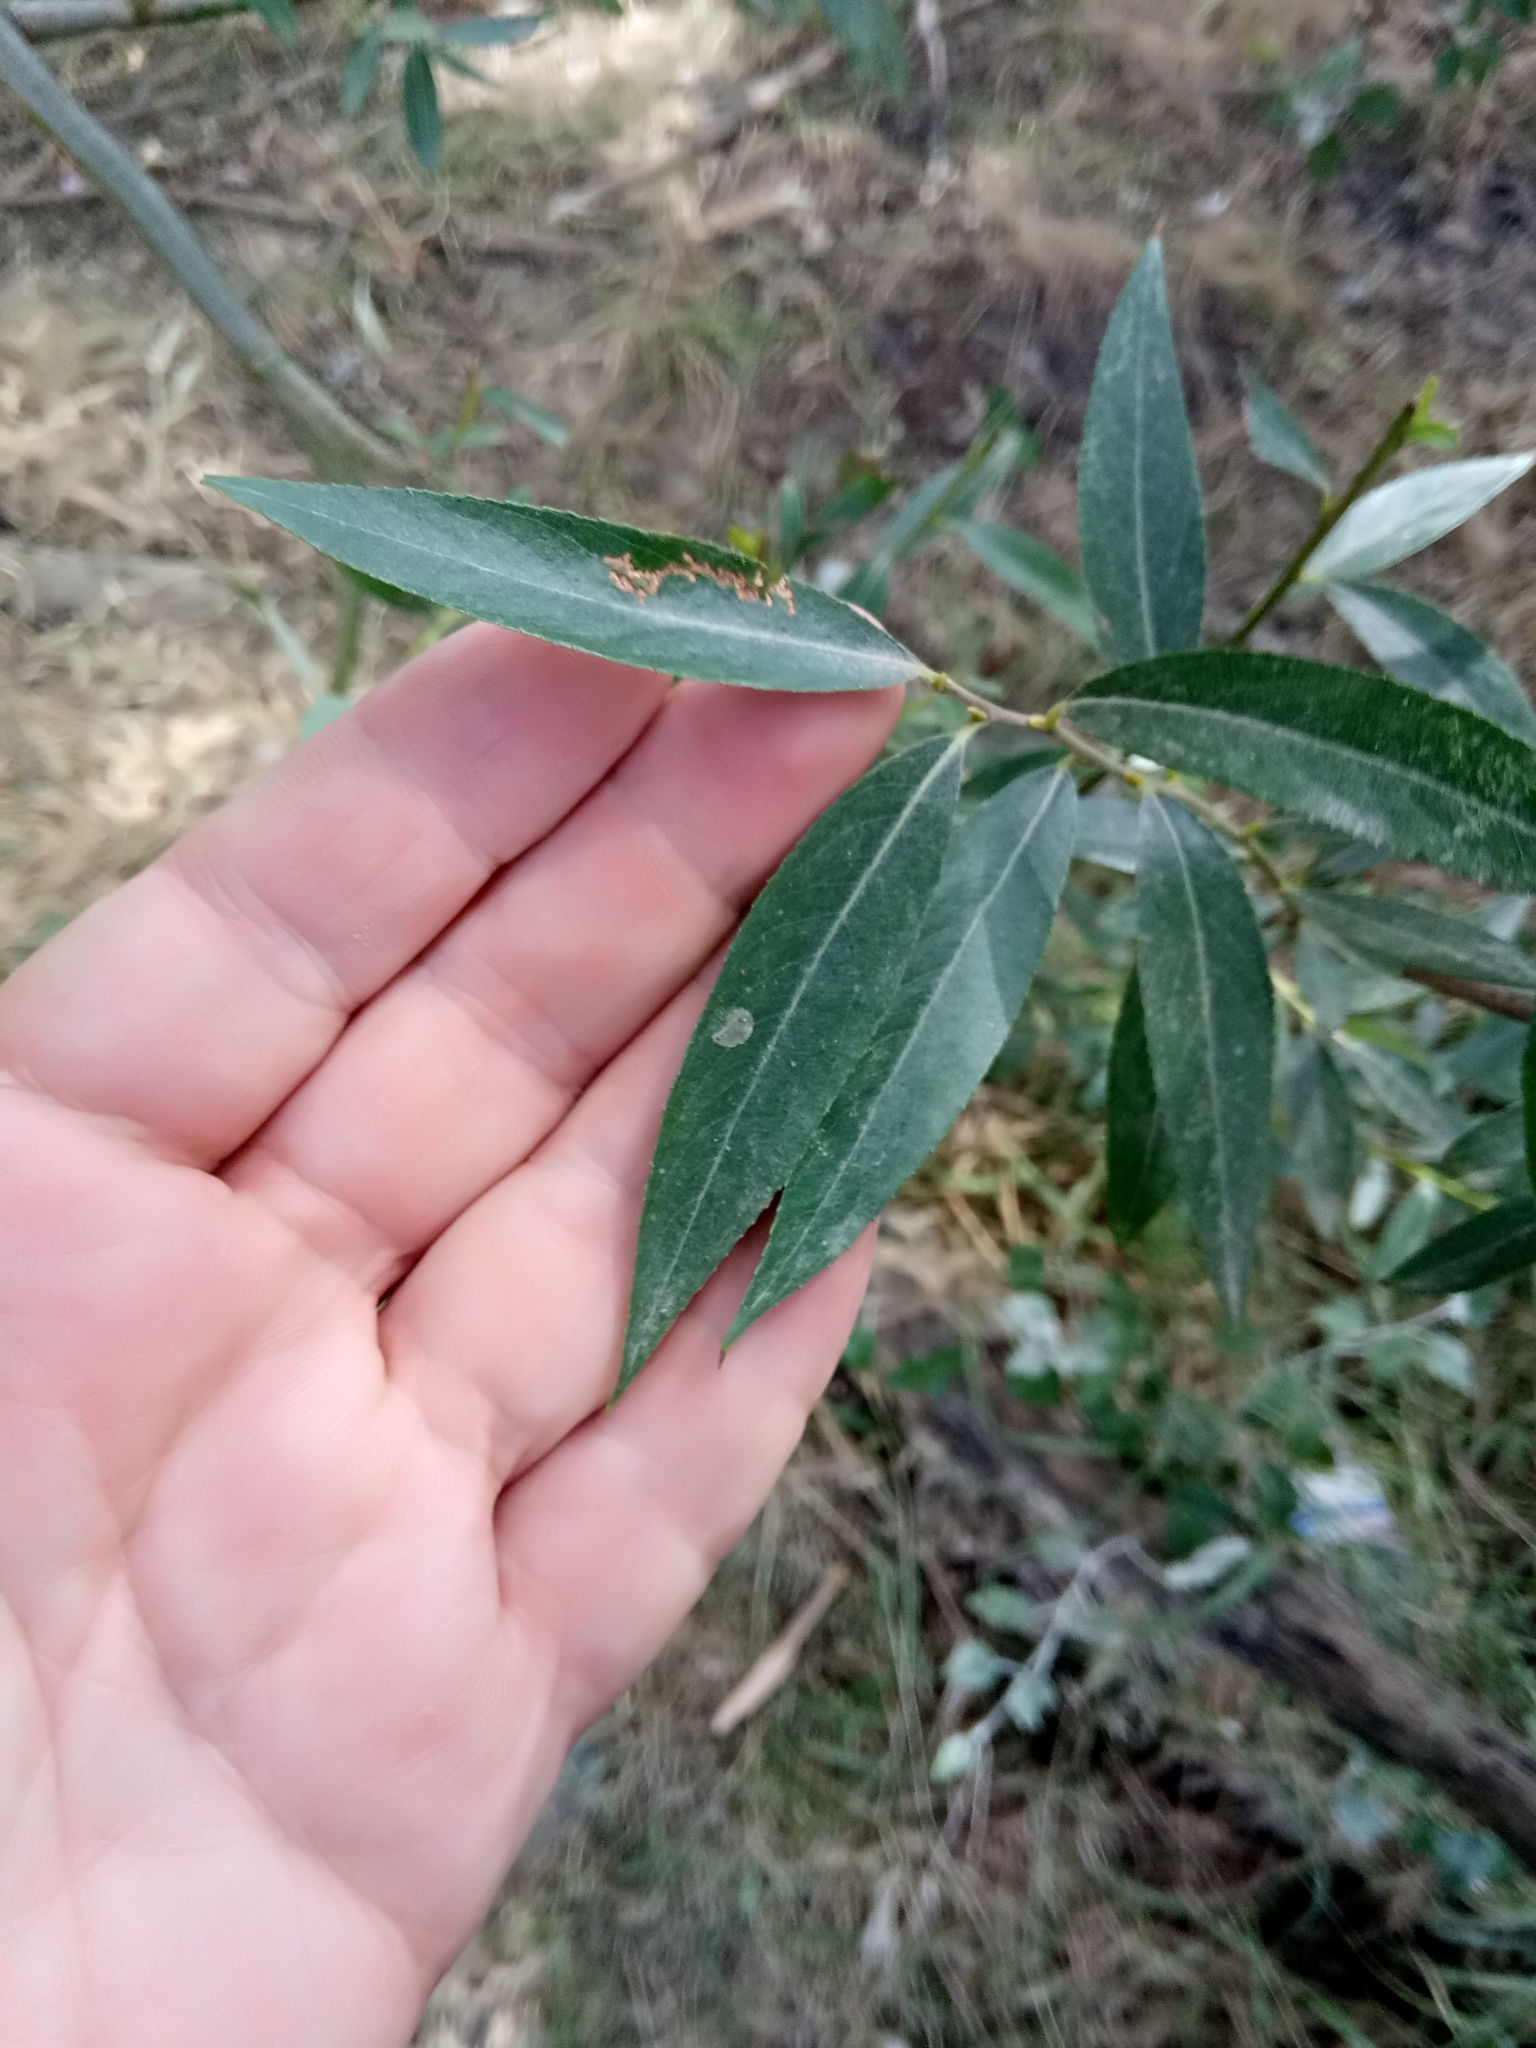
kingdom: Plantae
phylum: Tracheophyta
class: Magnoliopsida
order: Malpighiales
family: Salicaceae
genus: Salix
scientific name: Salix alba
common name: White willow
